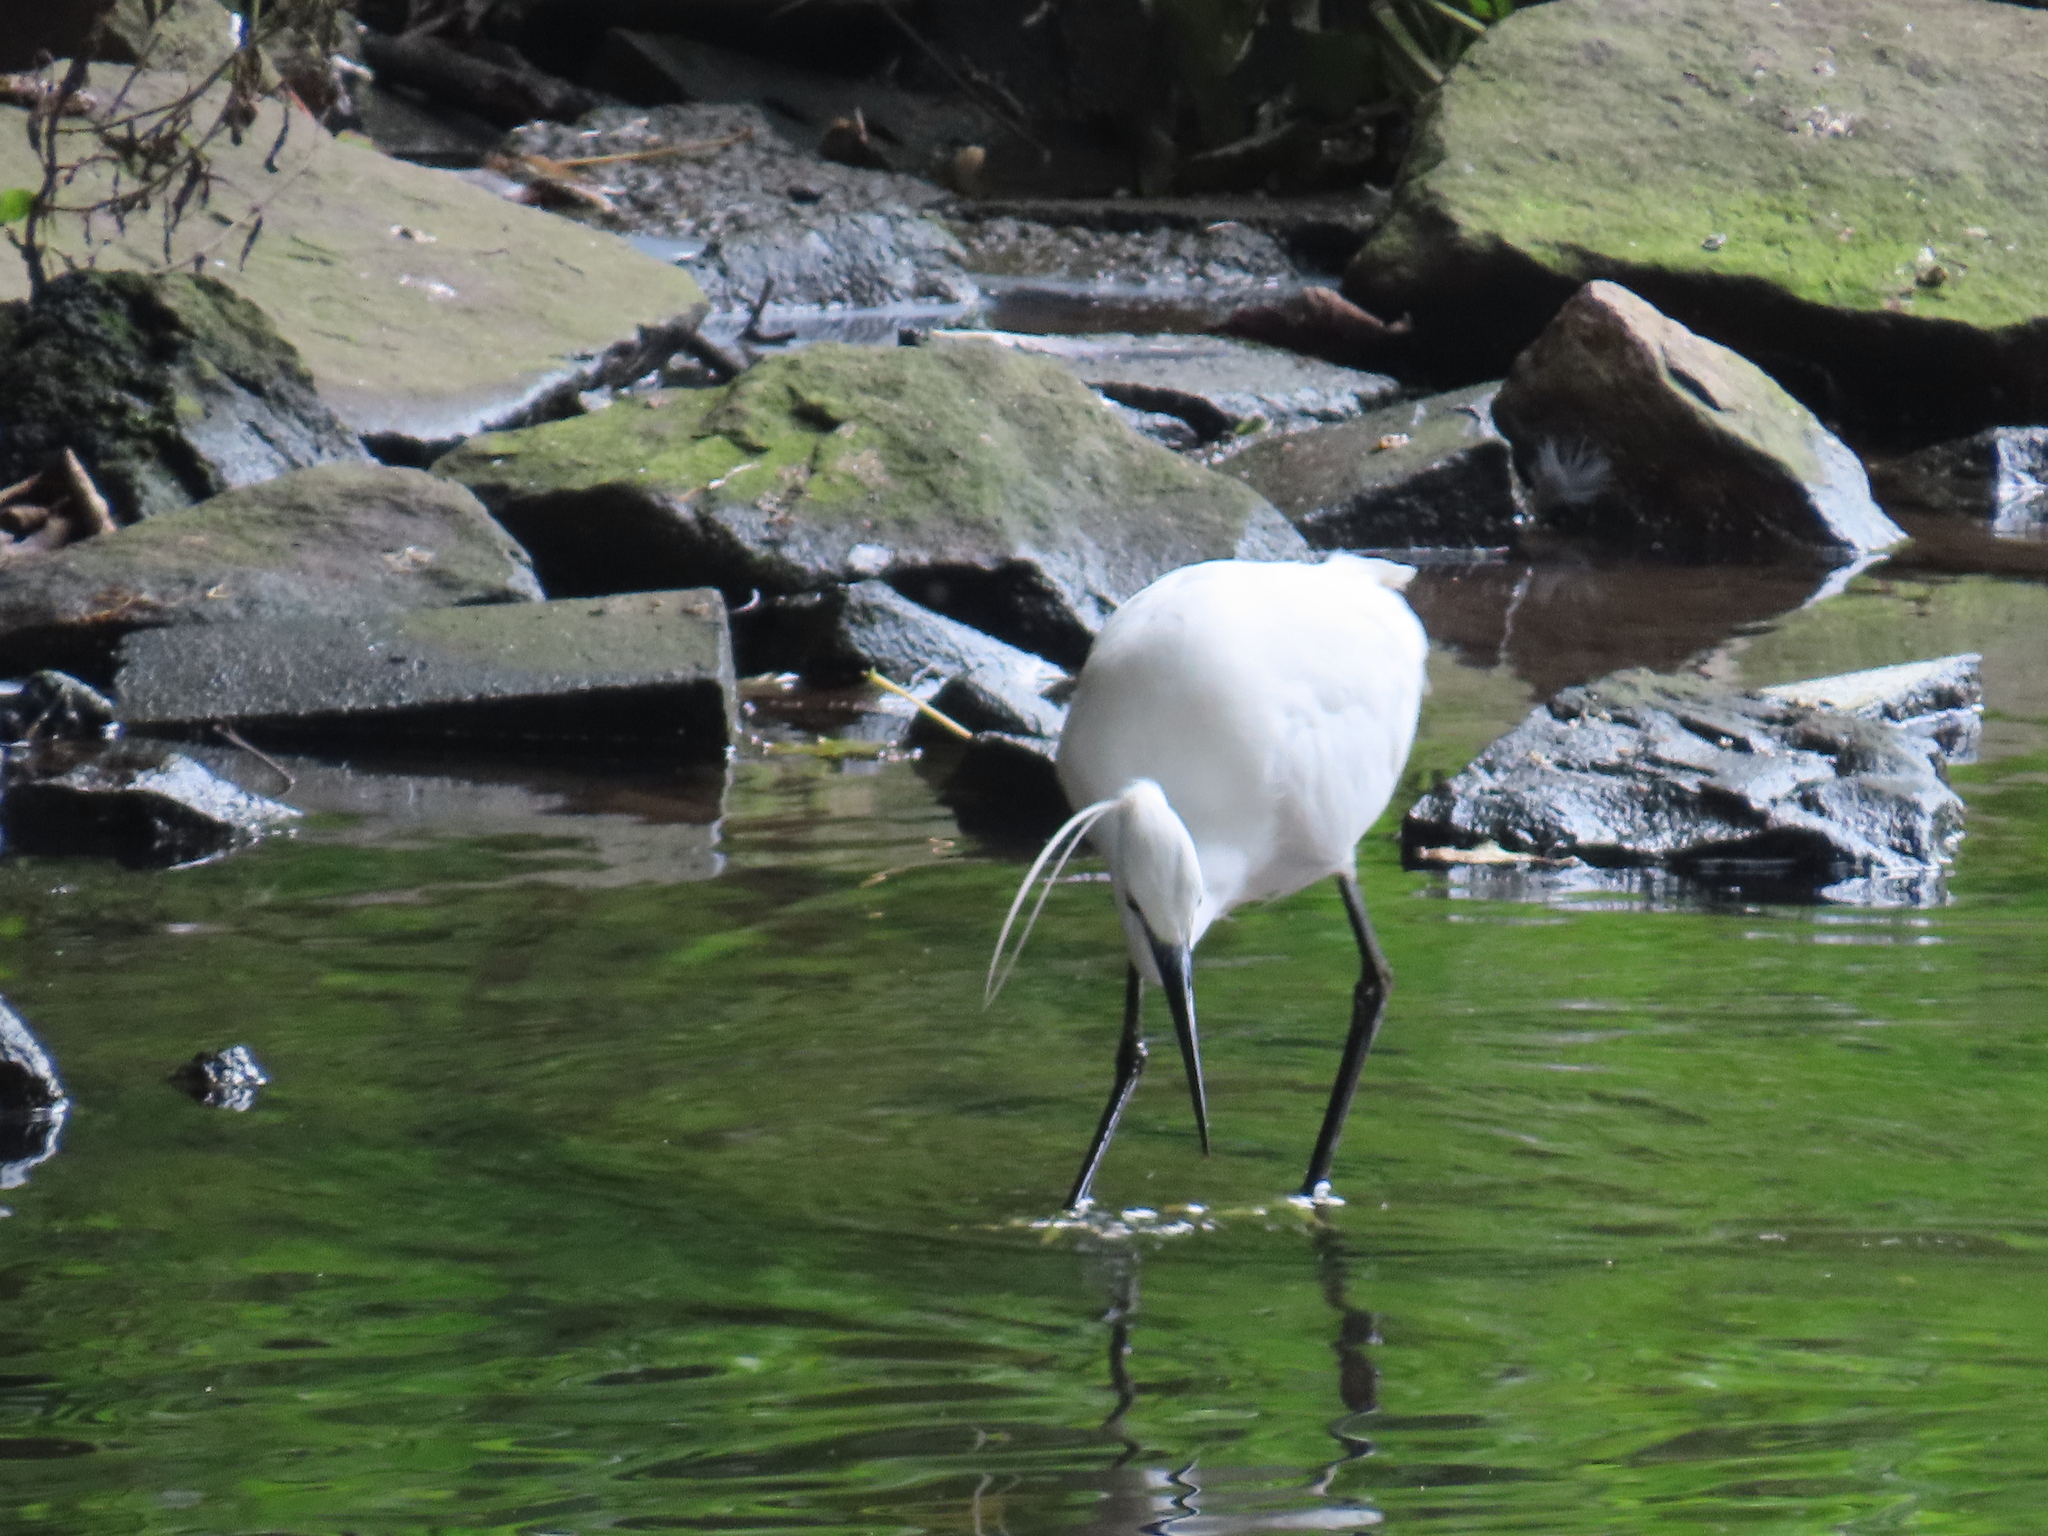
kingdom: Animalia
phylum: Chordata
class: Aves
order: Pelecaniformes
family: Ardeidae
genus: Egretta
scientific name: Egretta garzetta
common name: Little egret
